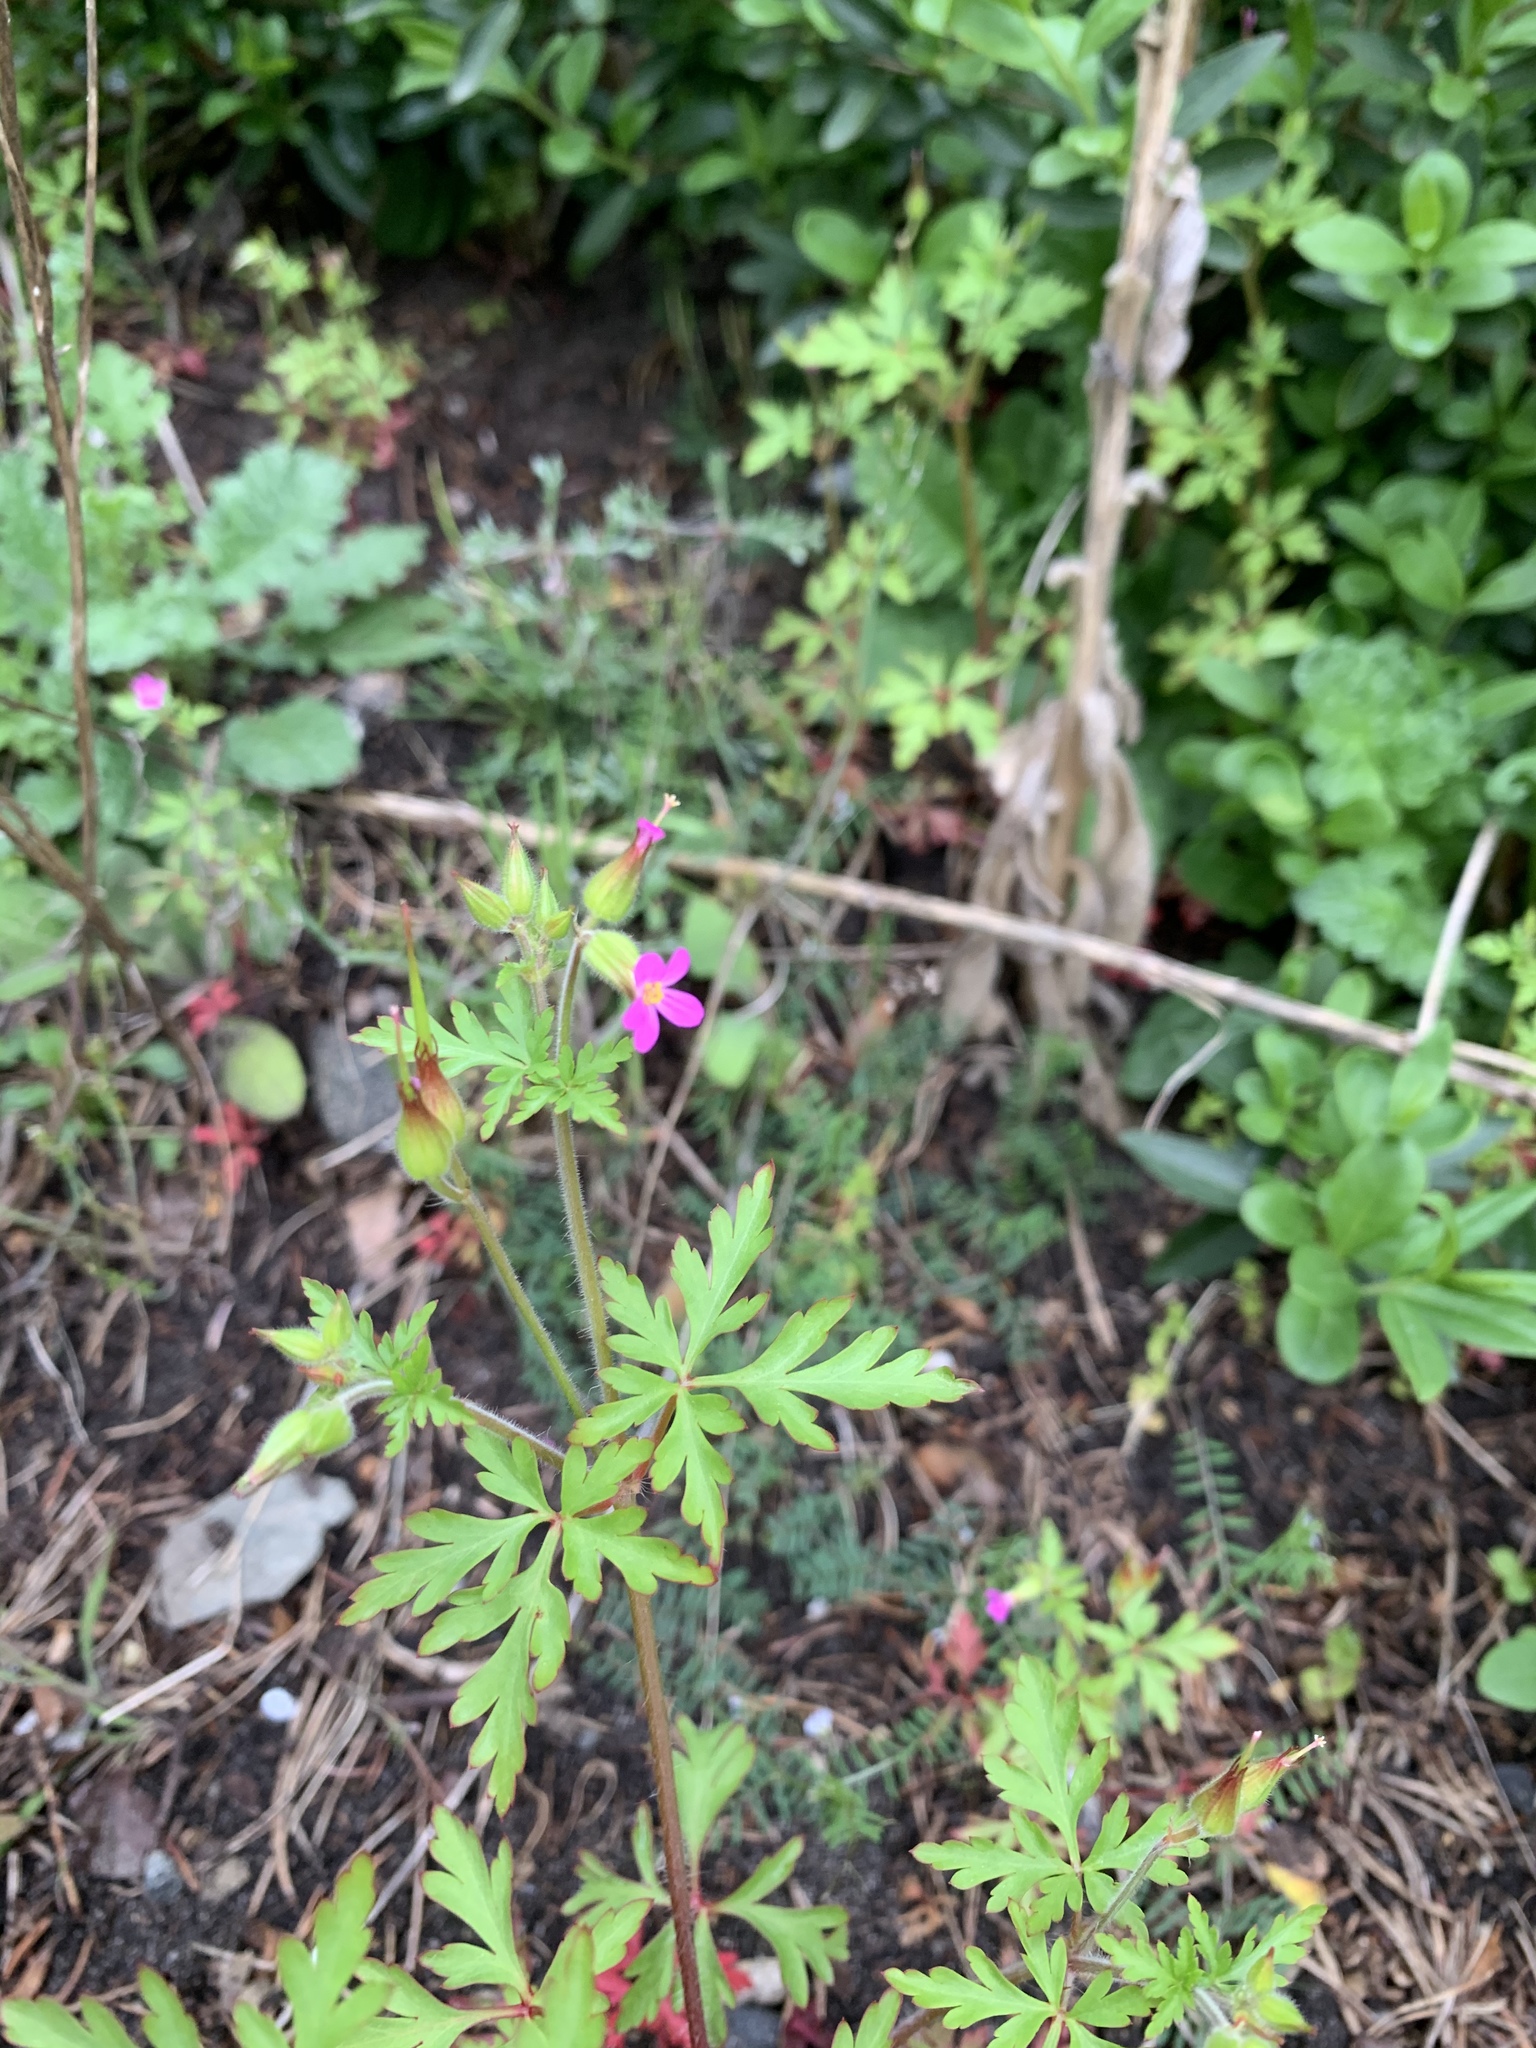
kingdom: Plantae
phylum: Tracheophyta
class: Magnoliopsida
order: Geraniales
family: Geraniaceae
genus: Geranium
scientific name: Geranium purpureum
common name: Little-robin
